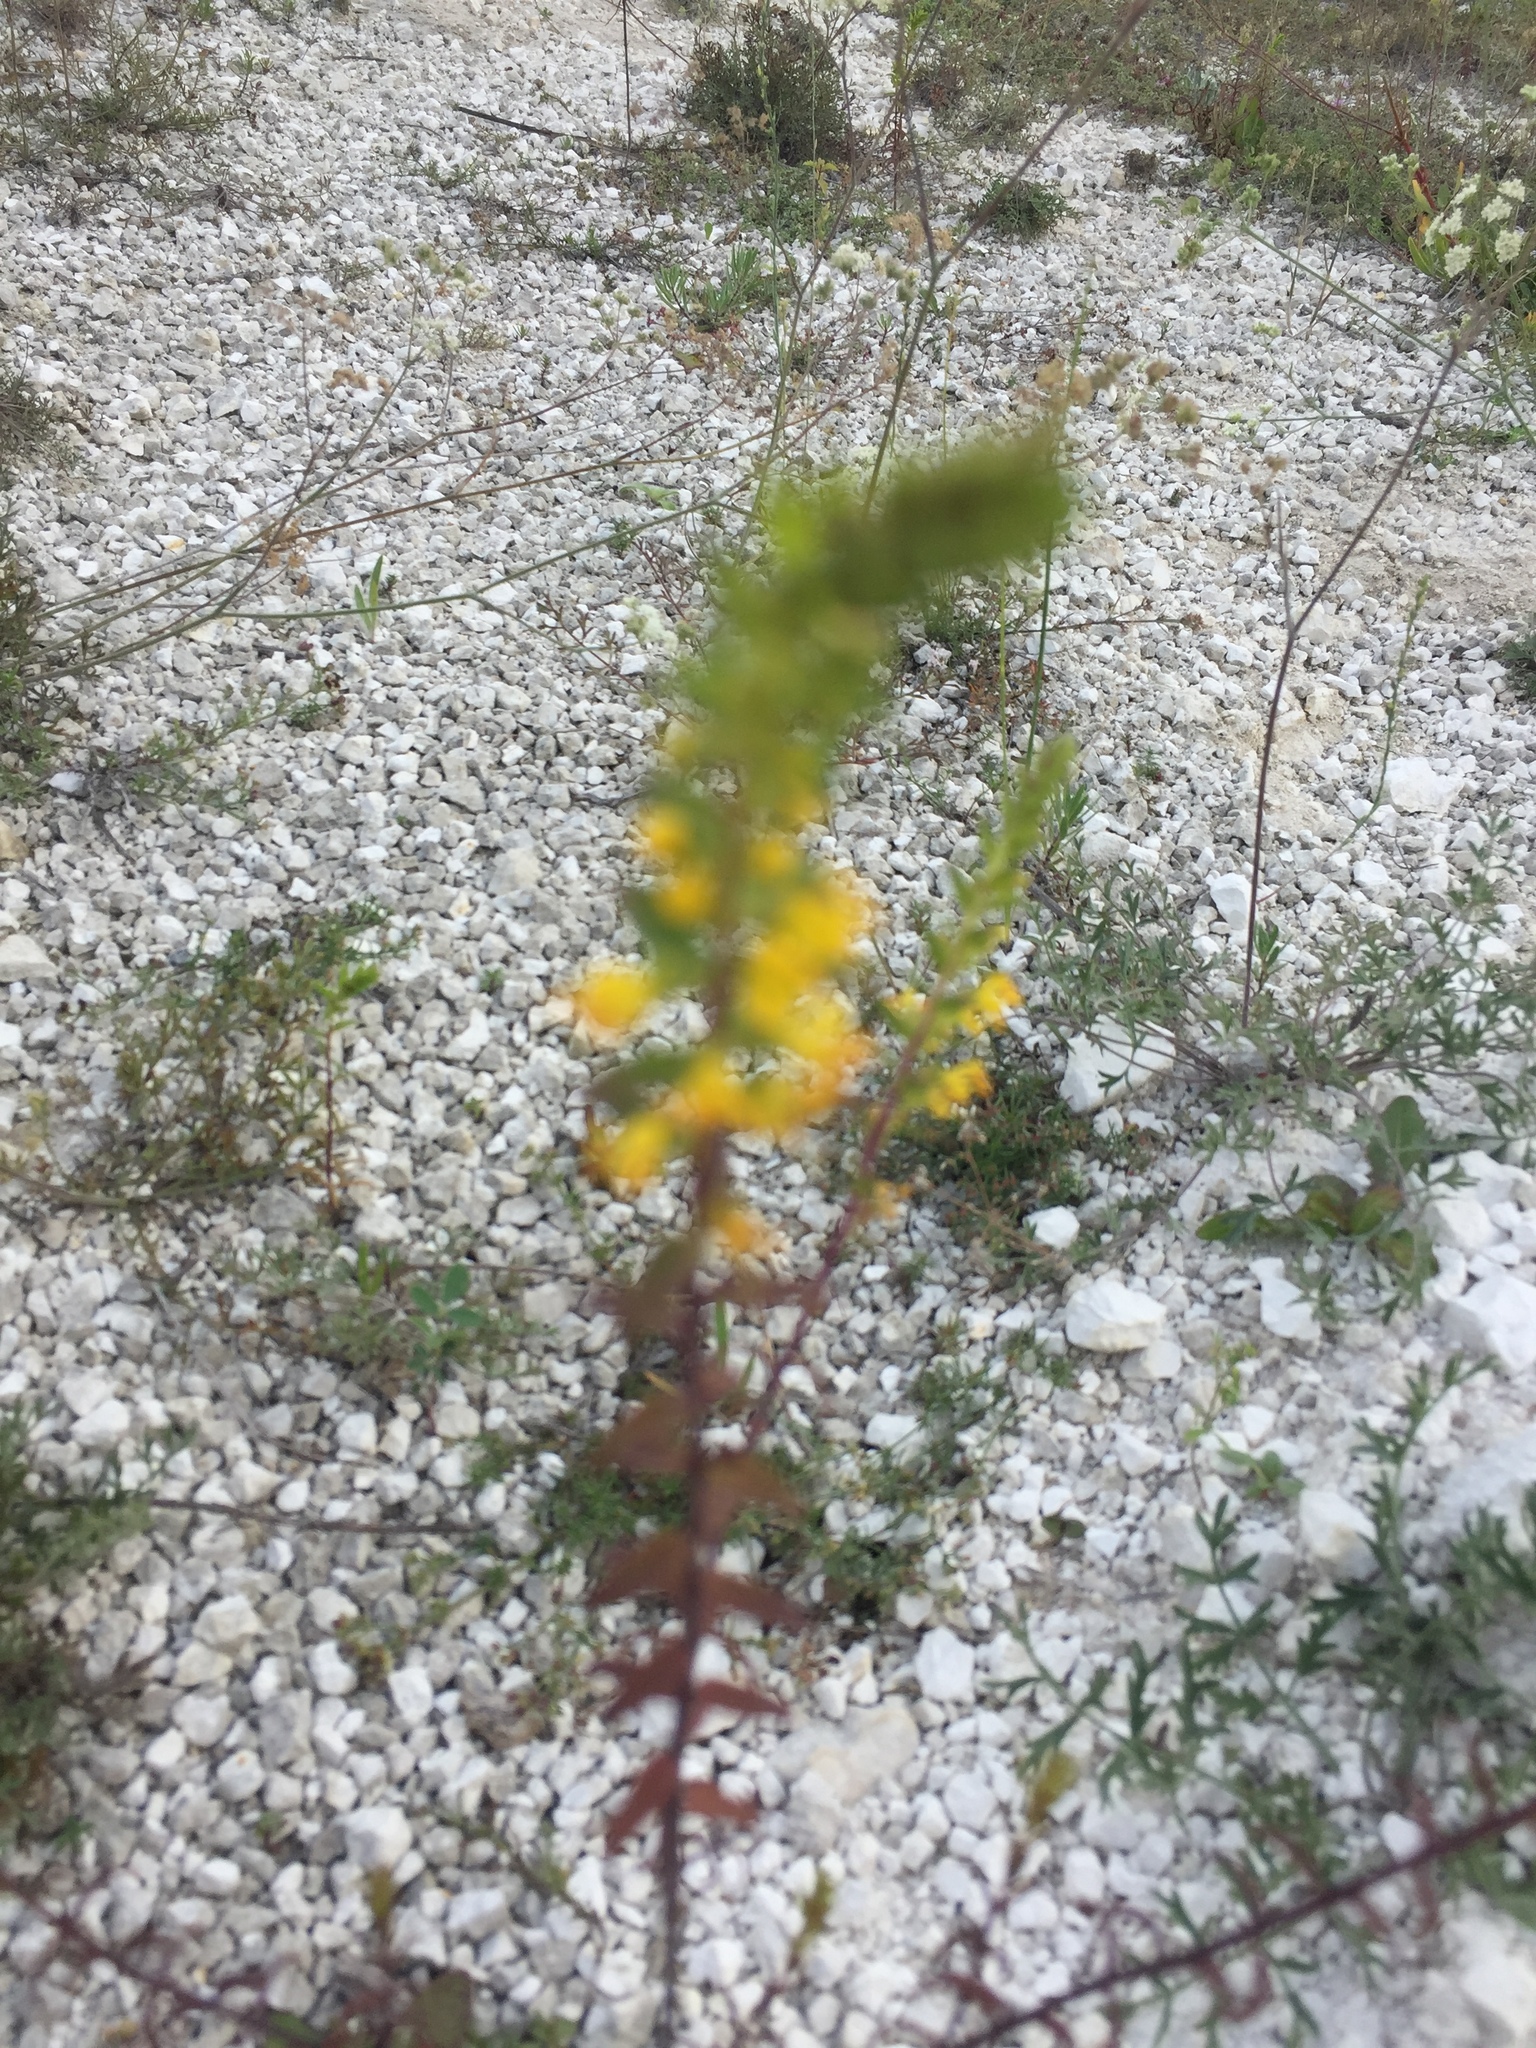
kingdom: Plantae
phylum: Tracheophyta
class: Magnoliopsida
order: Lamiales
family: Orobanchaceae
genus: Odontites
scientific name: Odontites luteus
